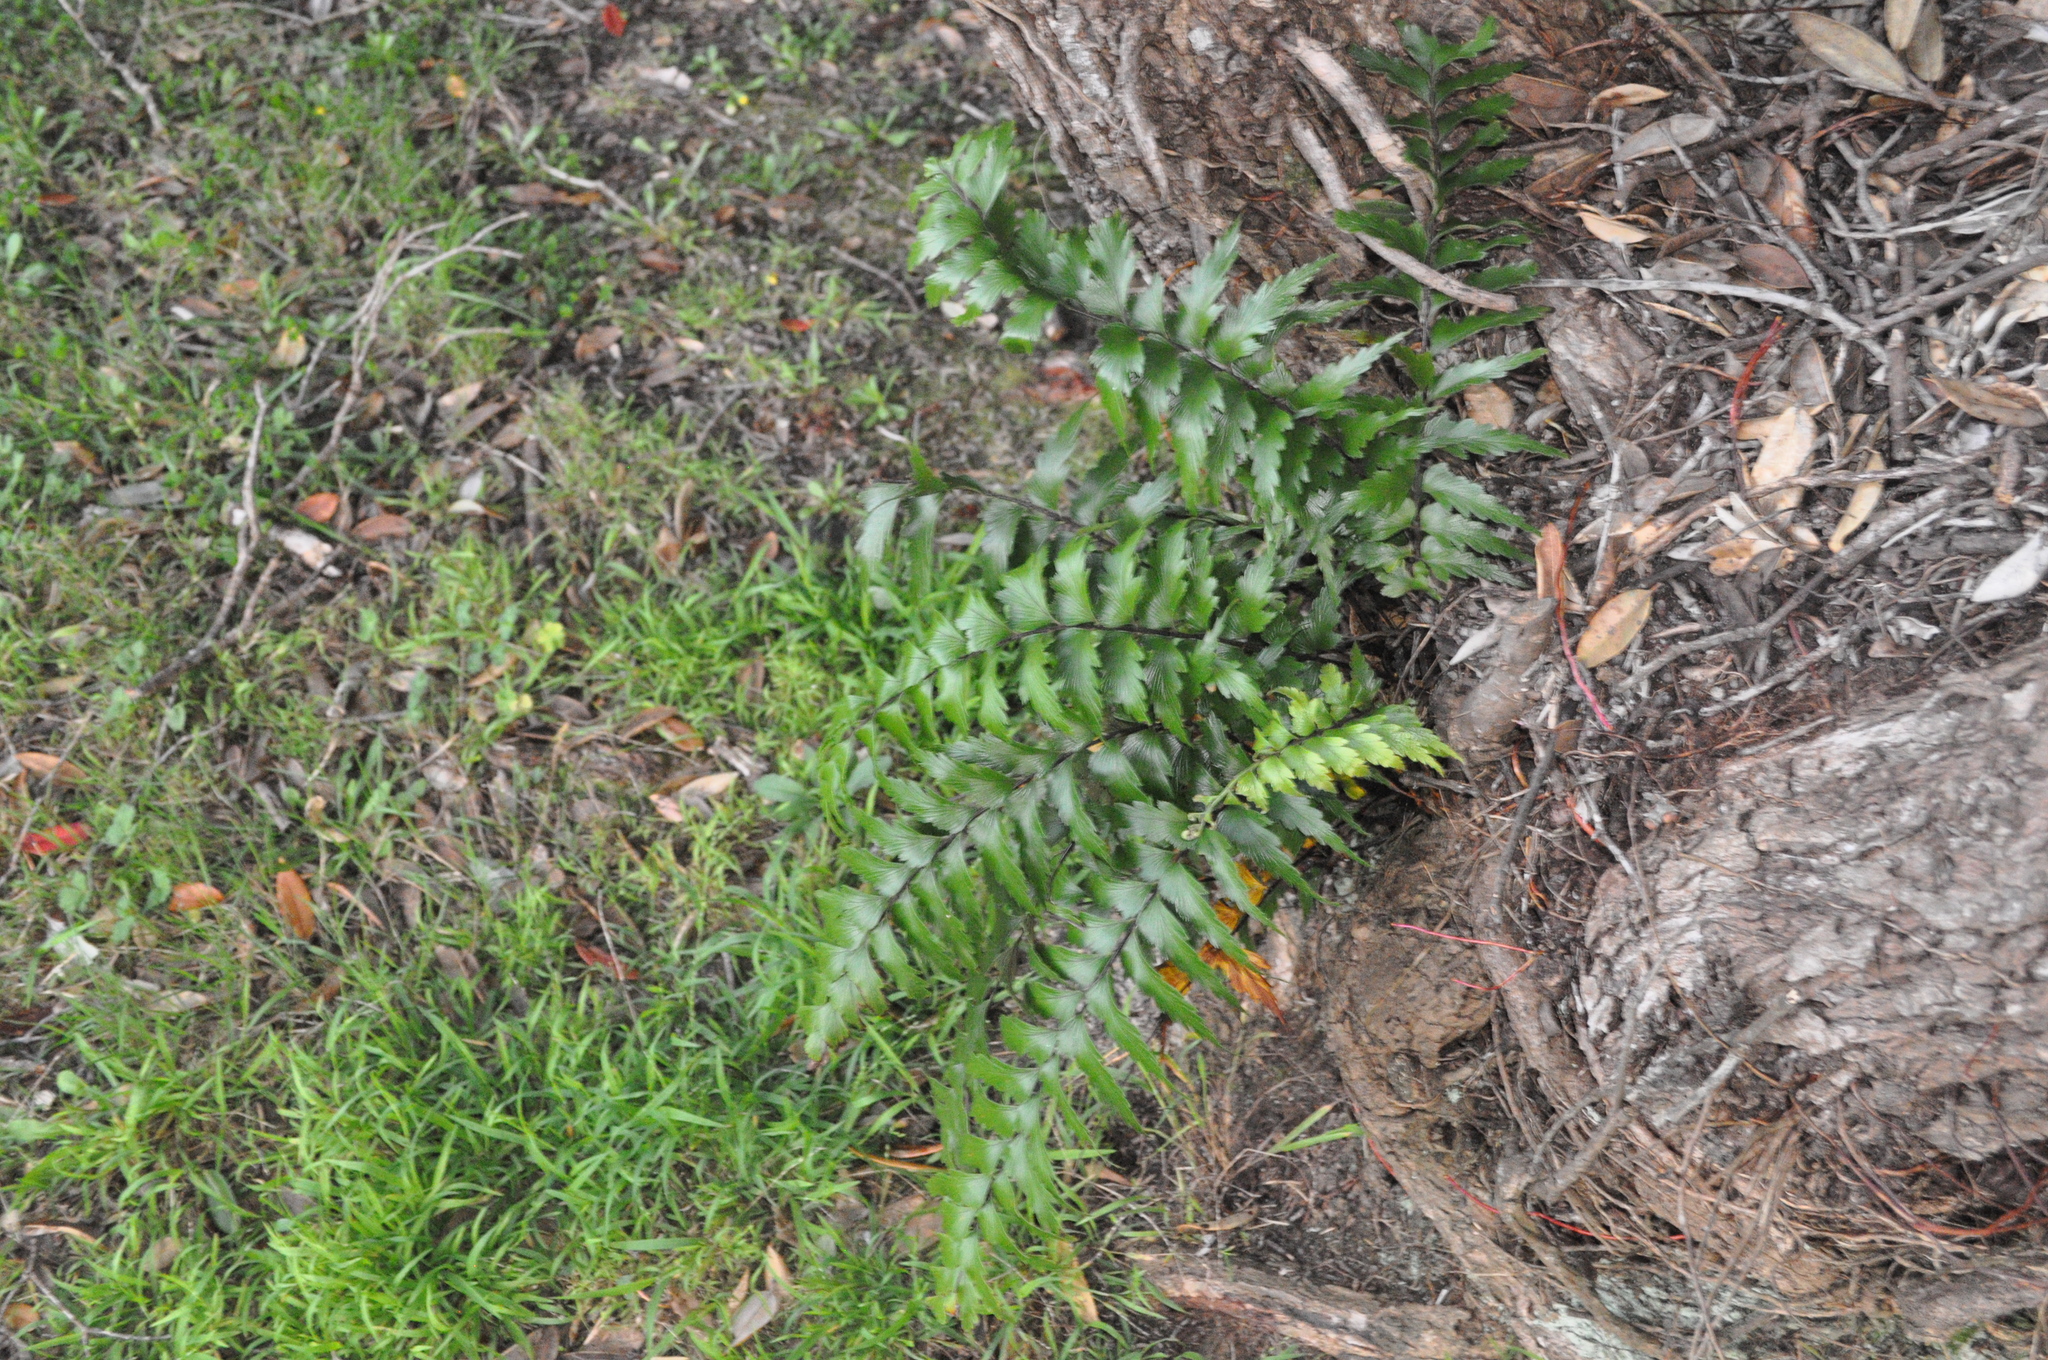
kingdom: Plantae
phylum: Tracheophyta
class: Polypodiopsida
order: Polypodiales
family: Aspleniaceae
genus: Asplenium
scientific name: Asplenium polyodon
